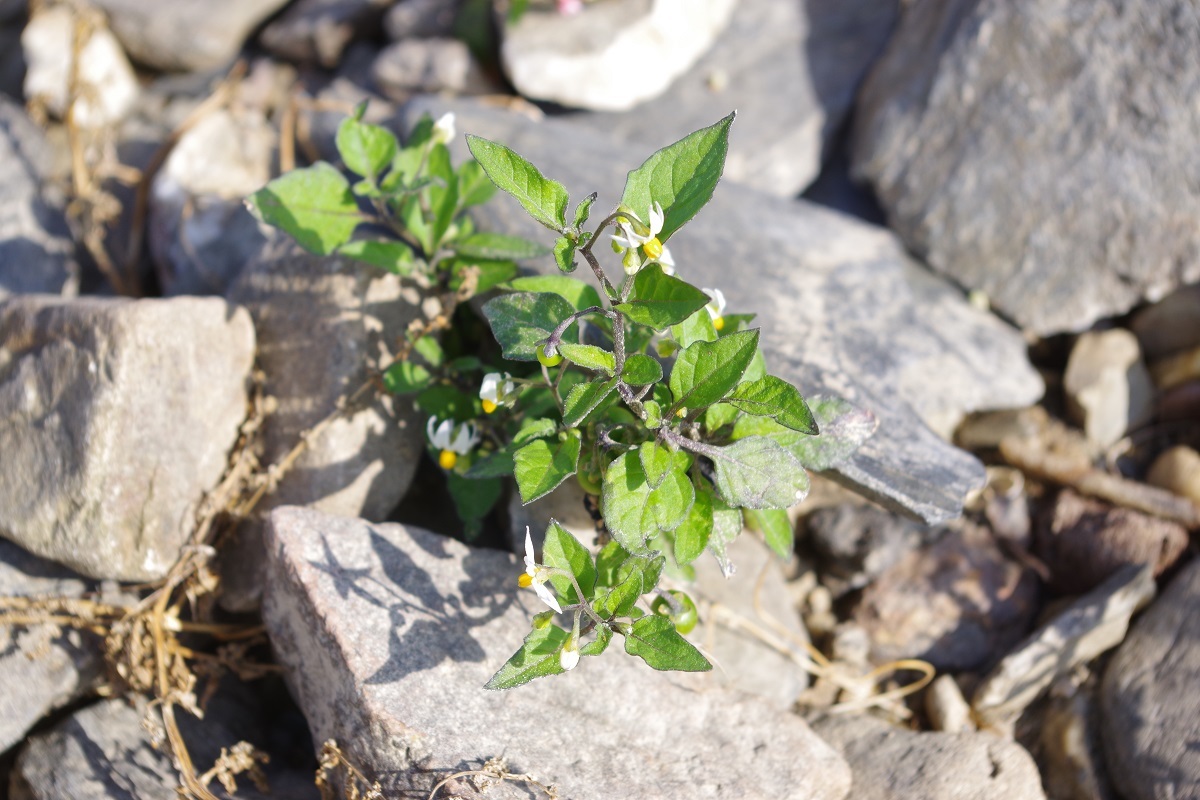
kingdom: Plantae
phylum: Tracheophyta
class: Magnoliopsida
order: Solanales
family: Solanaceae
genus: Solanum
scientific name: Solanum nigrum
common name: Black nightshade
